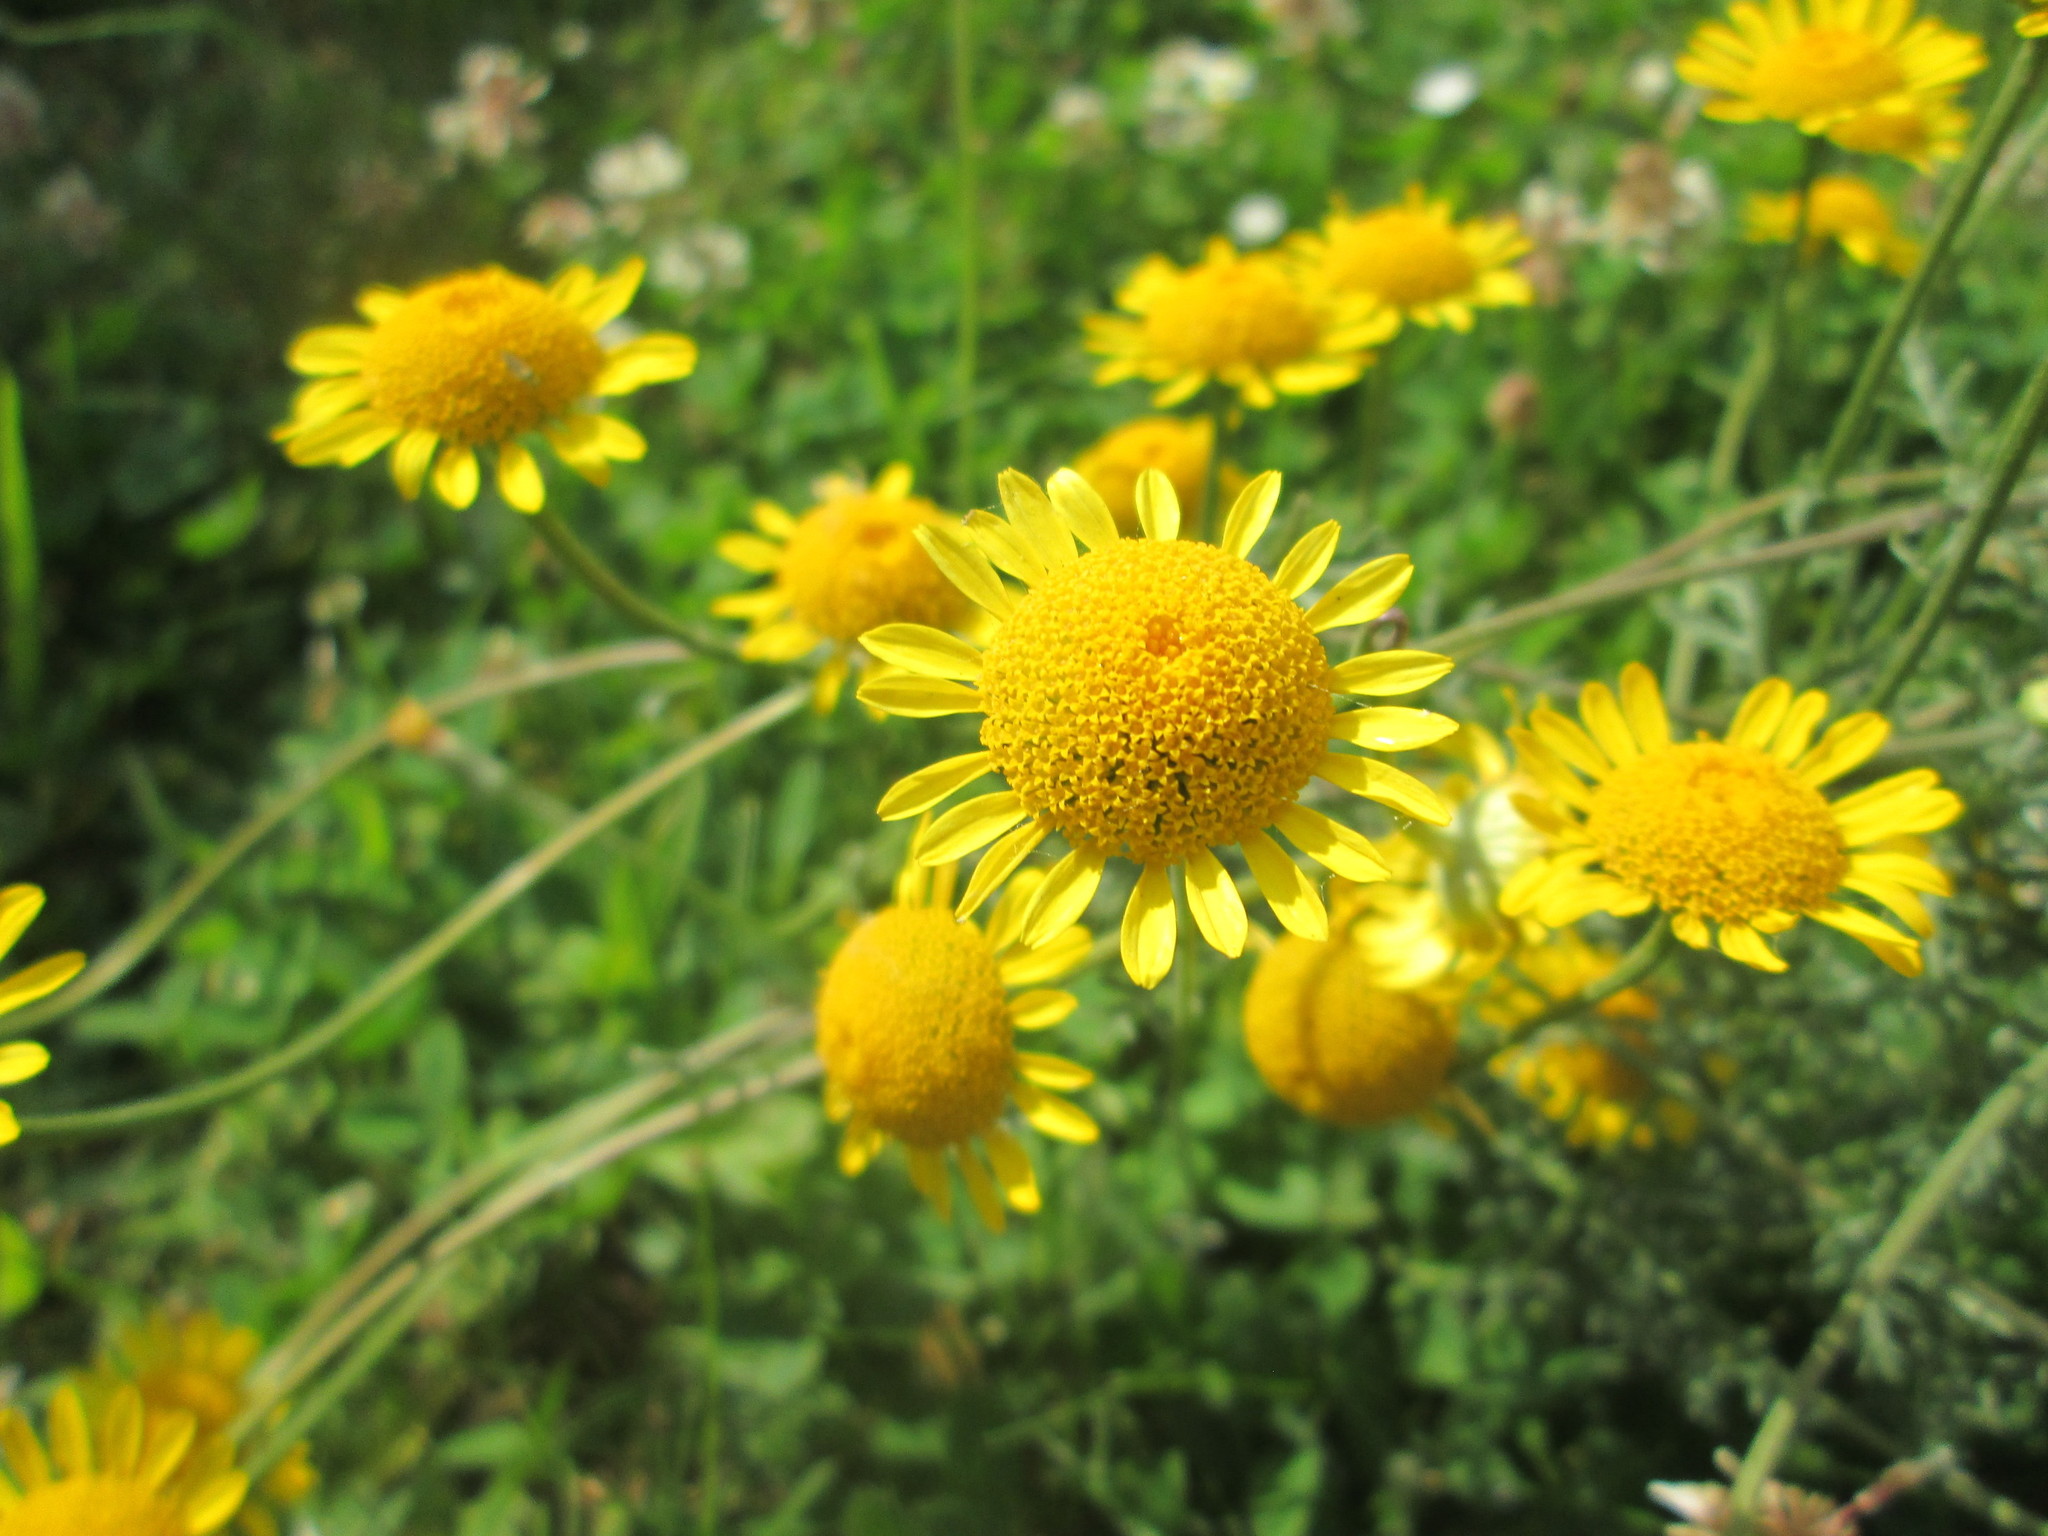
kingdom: Plantae
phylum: Tracheophyta
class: Magnoliopsida
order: Asterales
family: Asteraceae
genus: Cota
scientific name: Cota tinctoria
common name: Golden chamomile
